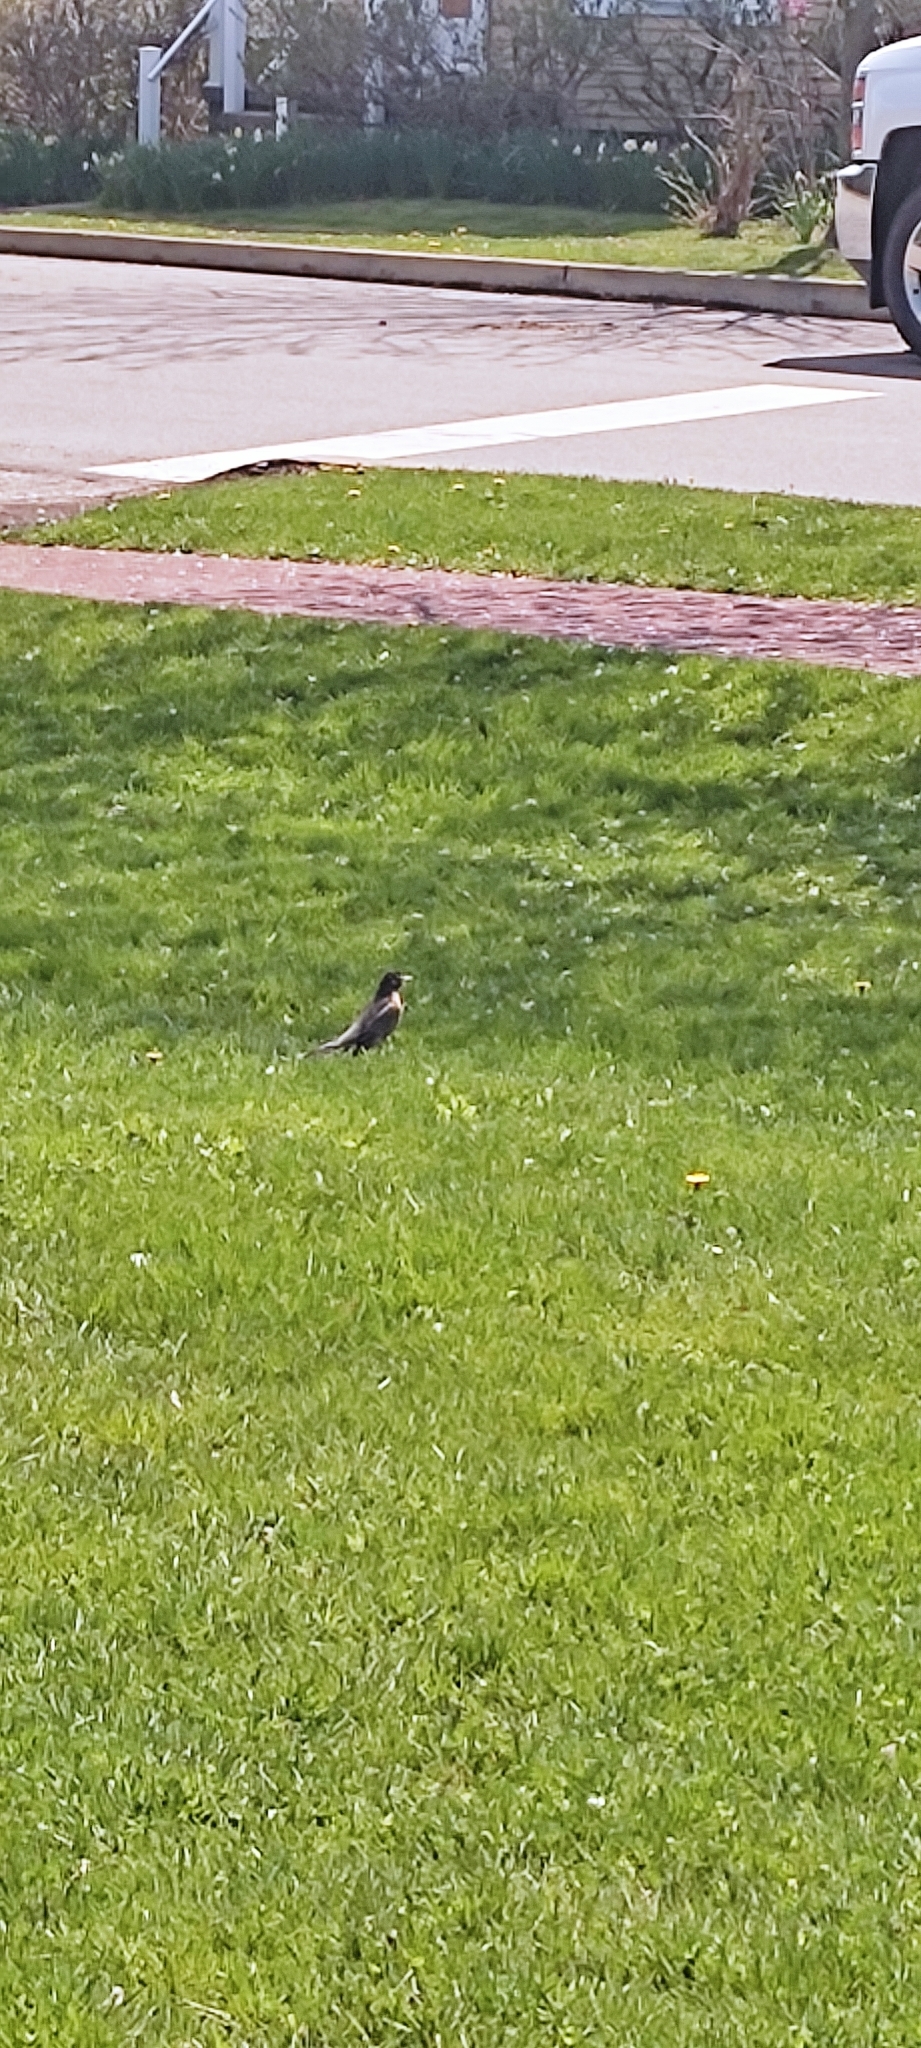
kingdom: Animalia
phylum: Chordata
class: Aves
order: Passeriformes
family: Turdidae
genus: Turdus
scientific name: Turdus migratorius
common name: American robin
